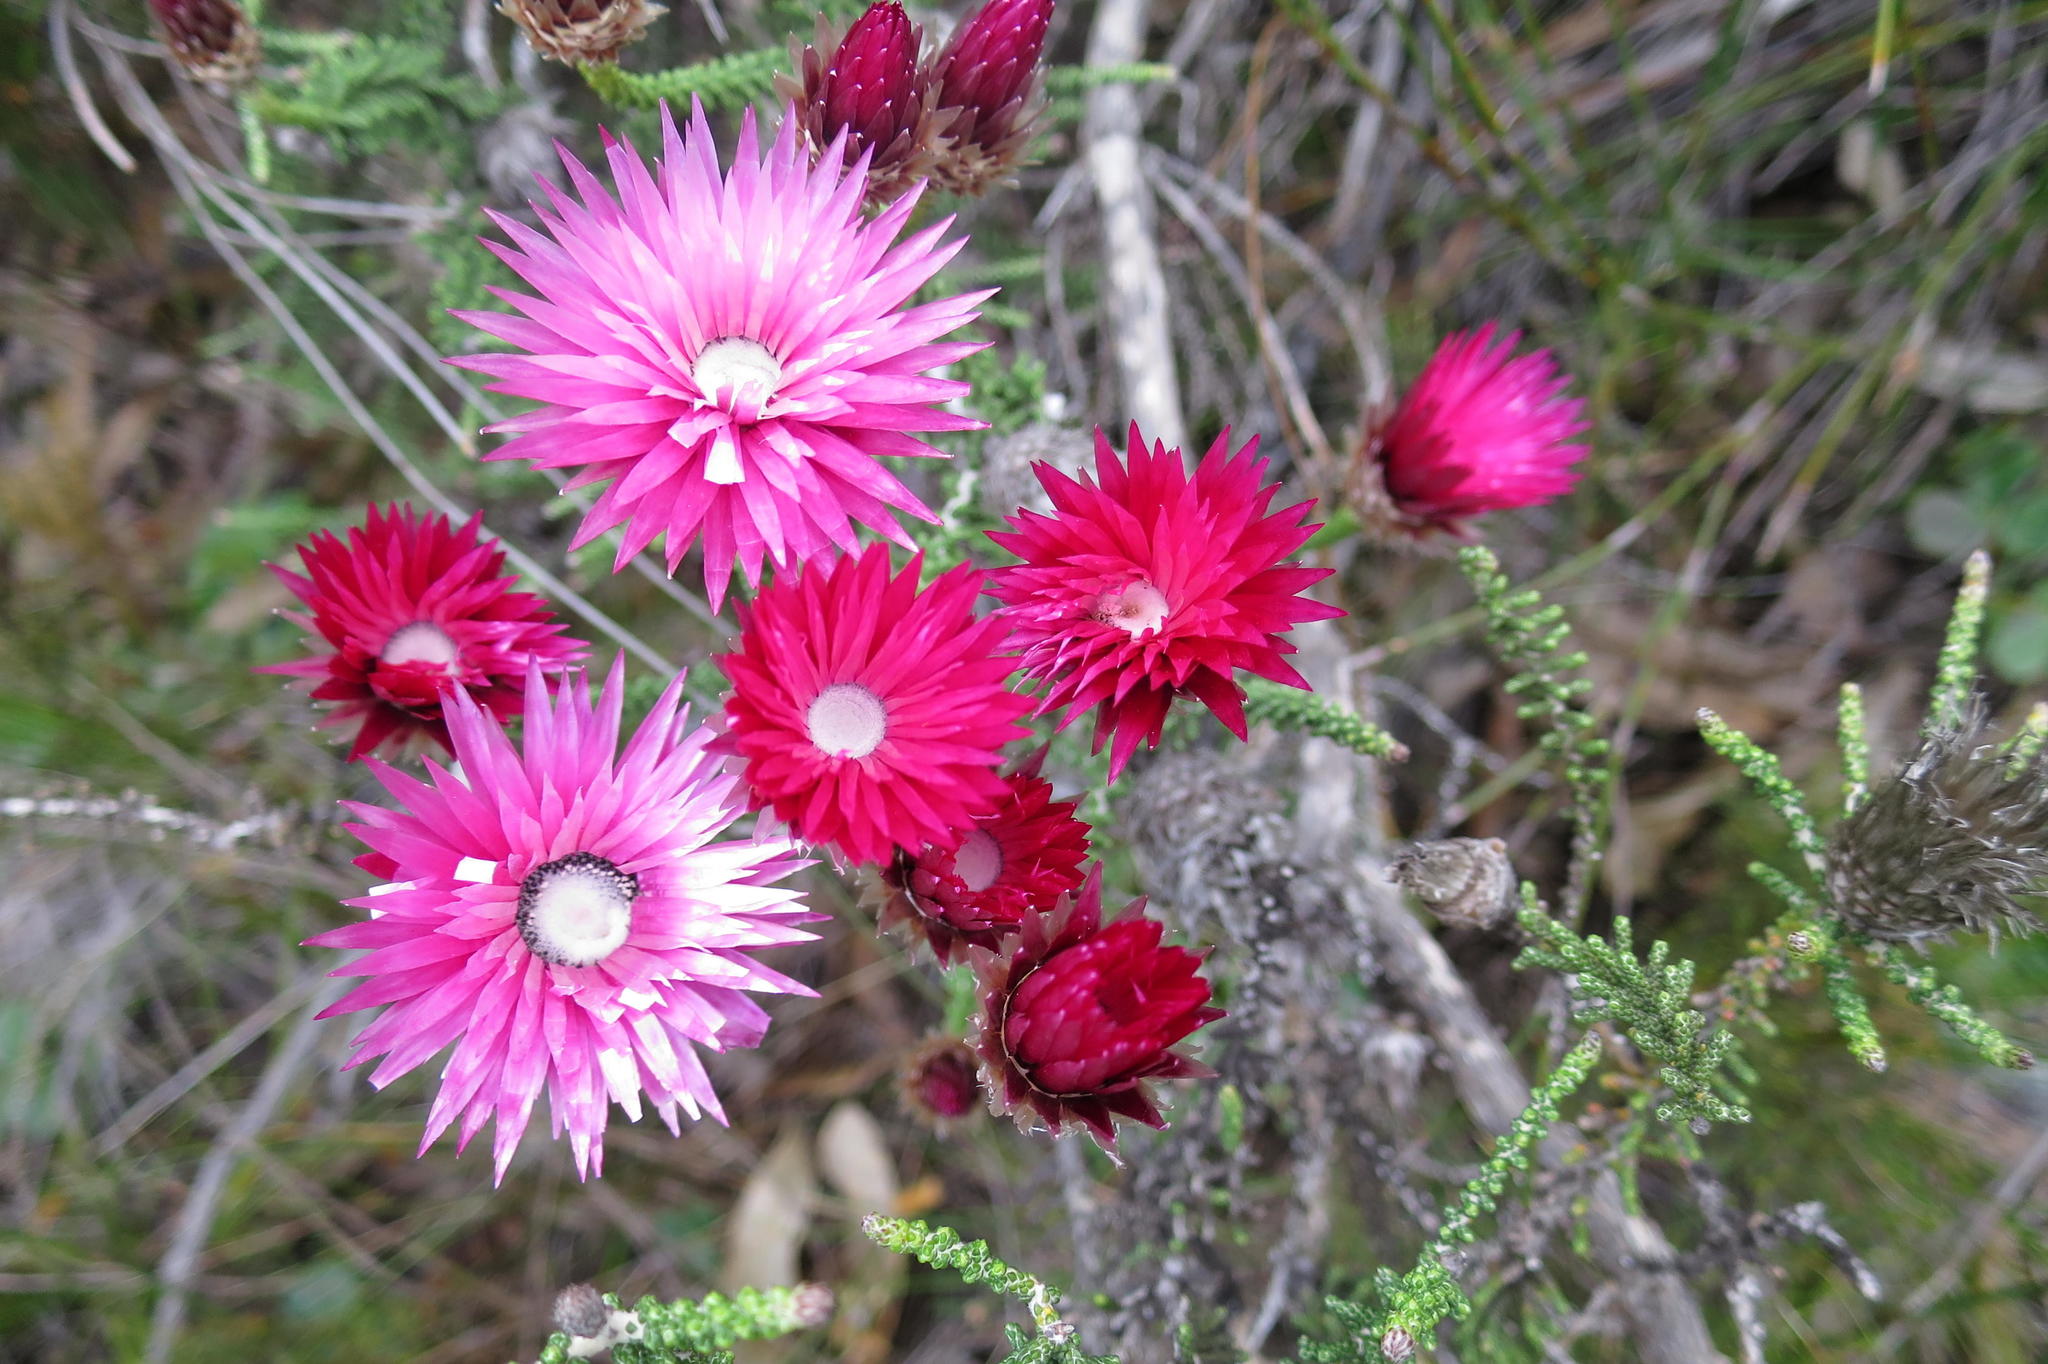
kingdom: Plantae
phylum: Tracheophyta
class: Magnoliopsida
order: Asterales
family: Asteraceae
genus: Phaenocoma
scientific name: Phaenocoma prolifera
